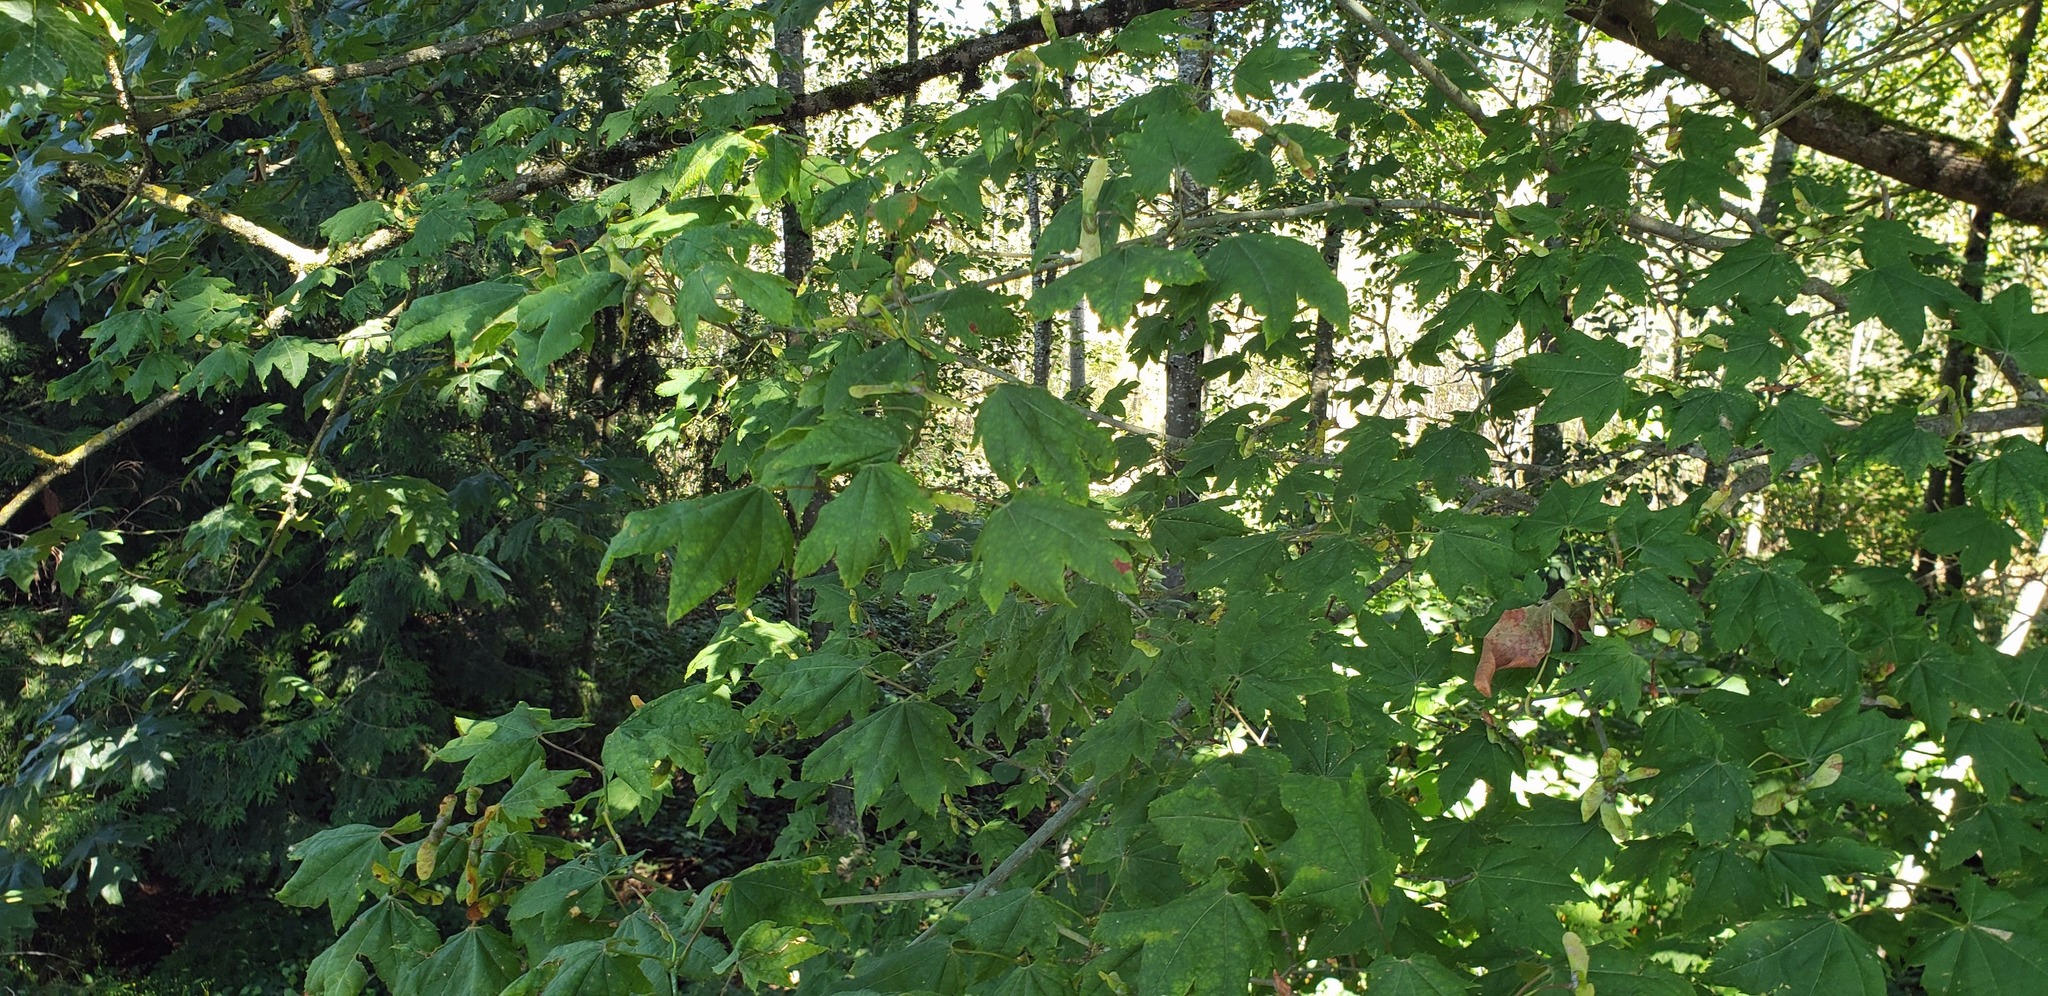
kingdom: Plantae
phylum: Tracheophyta
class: Magnoliopsida
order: Sapindales
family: Sapindaceae
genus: Acer
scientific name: Acer circinatum
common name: Vine maple
